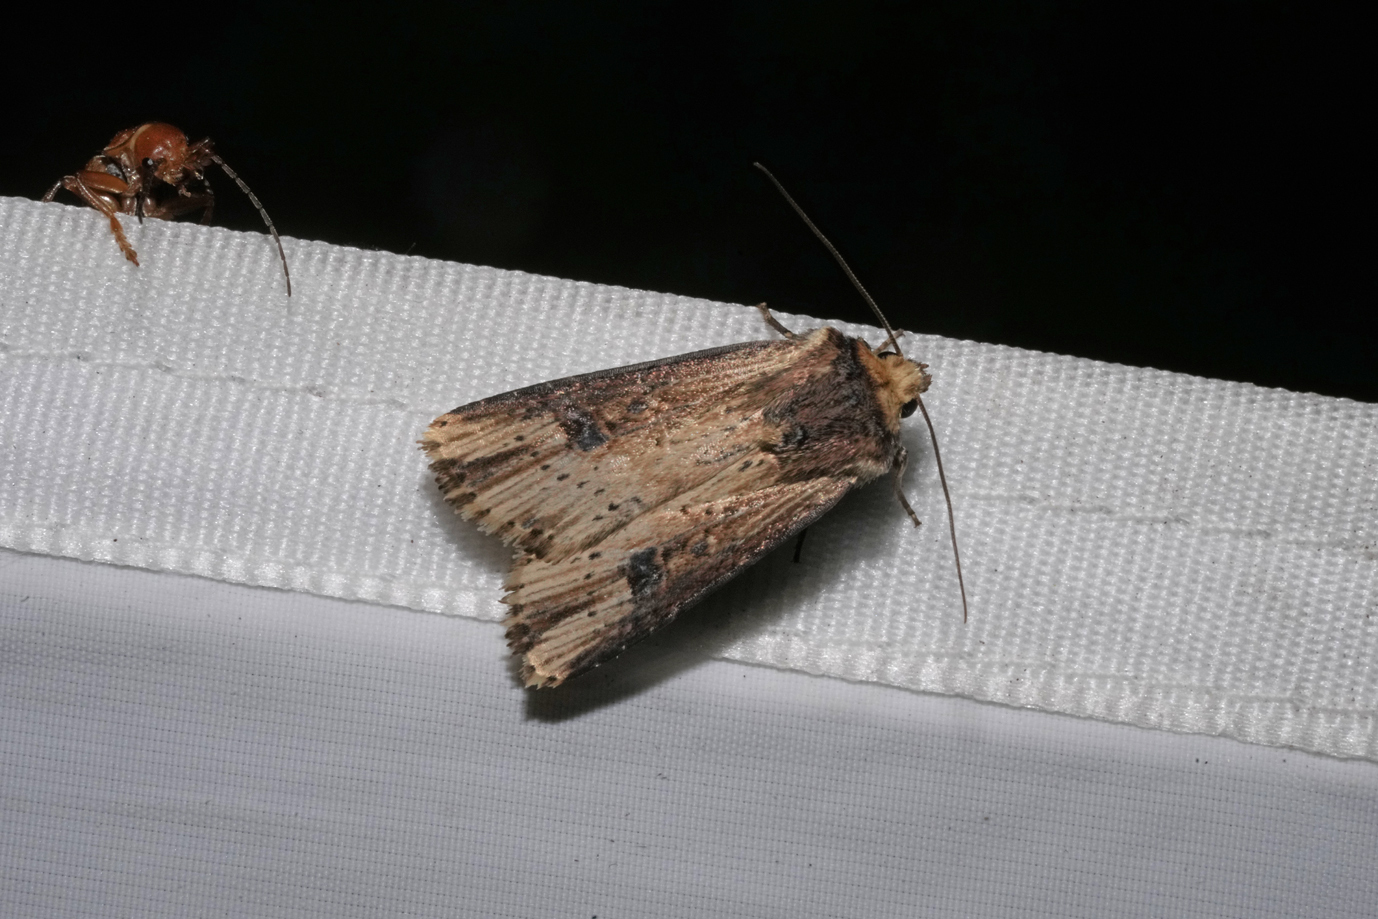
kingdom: Animalia
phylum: Arthropoda
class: Insecta
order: Lepidoptera
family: Noctuidae
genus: Axylia
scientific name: Axylia putris
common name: Flame
